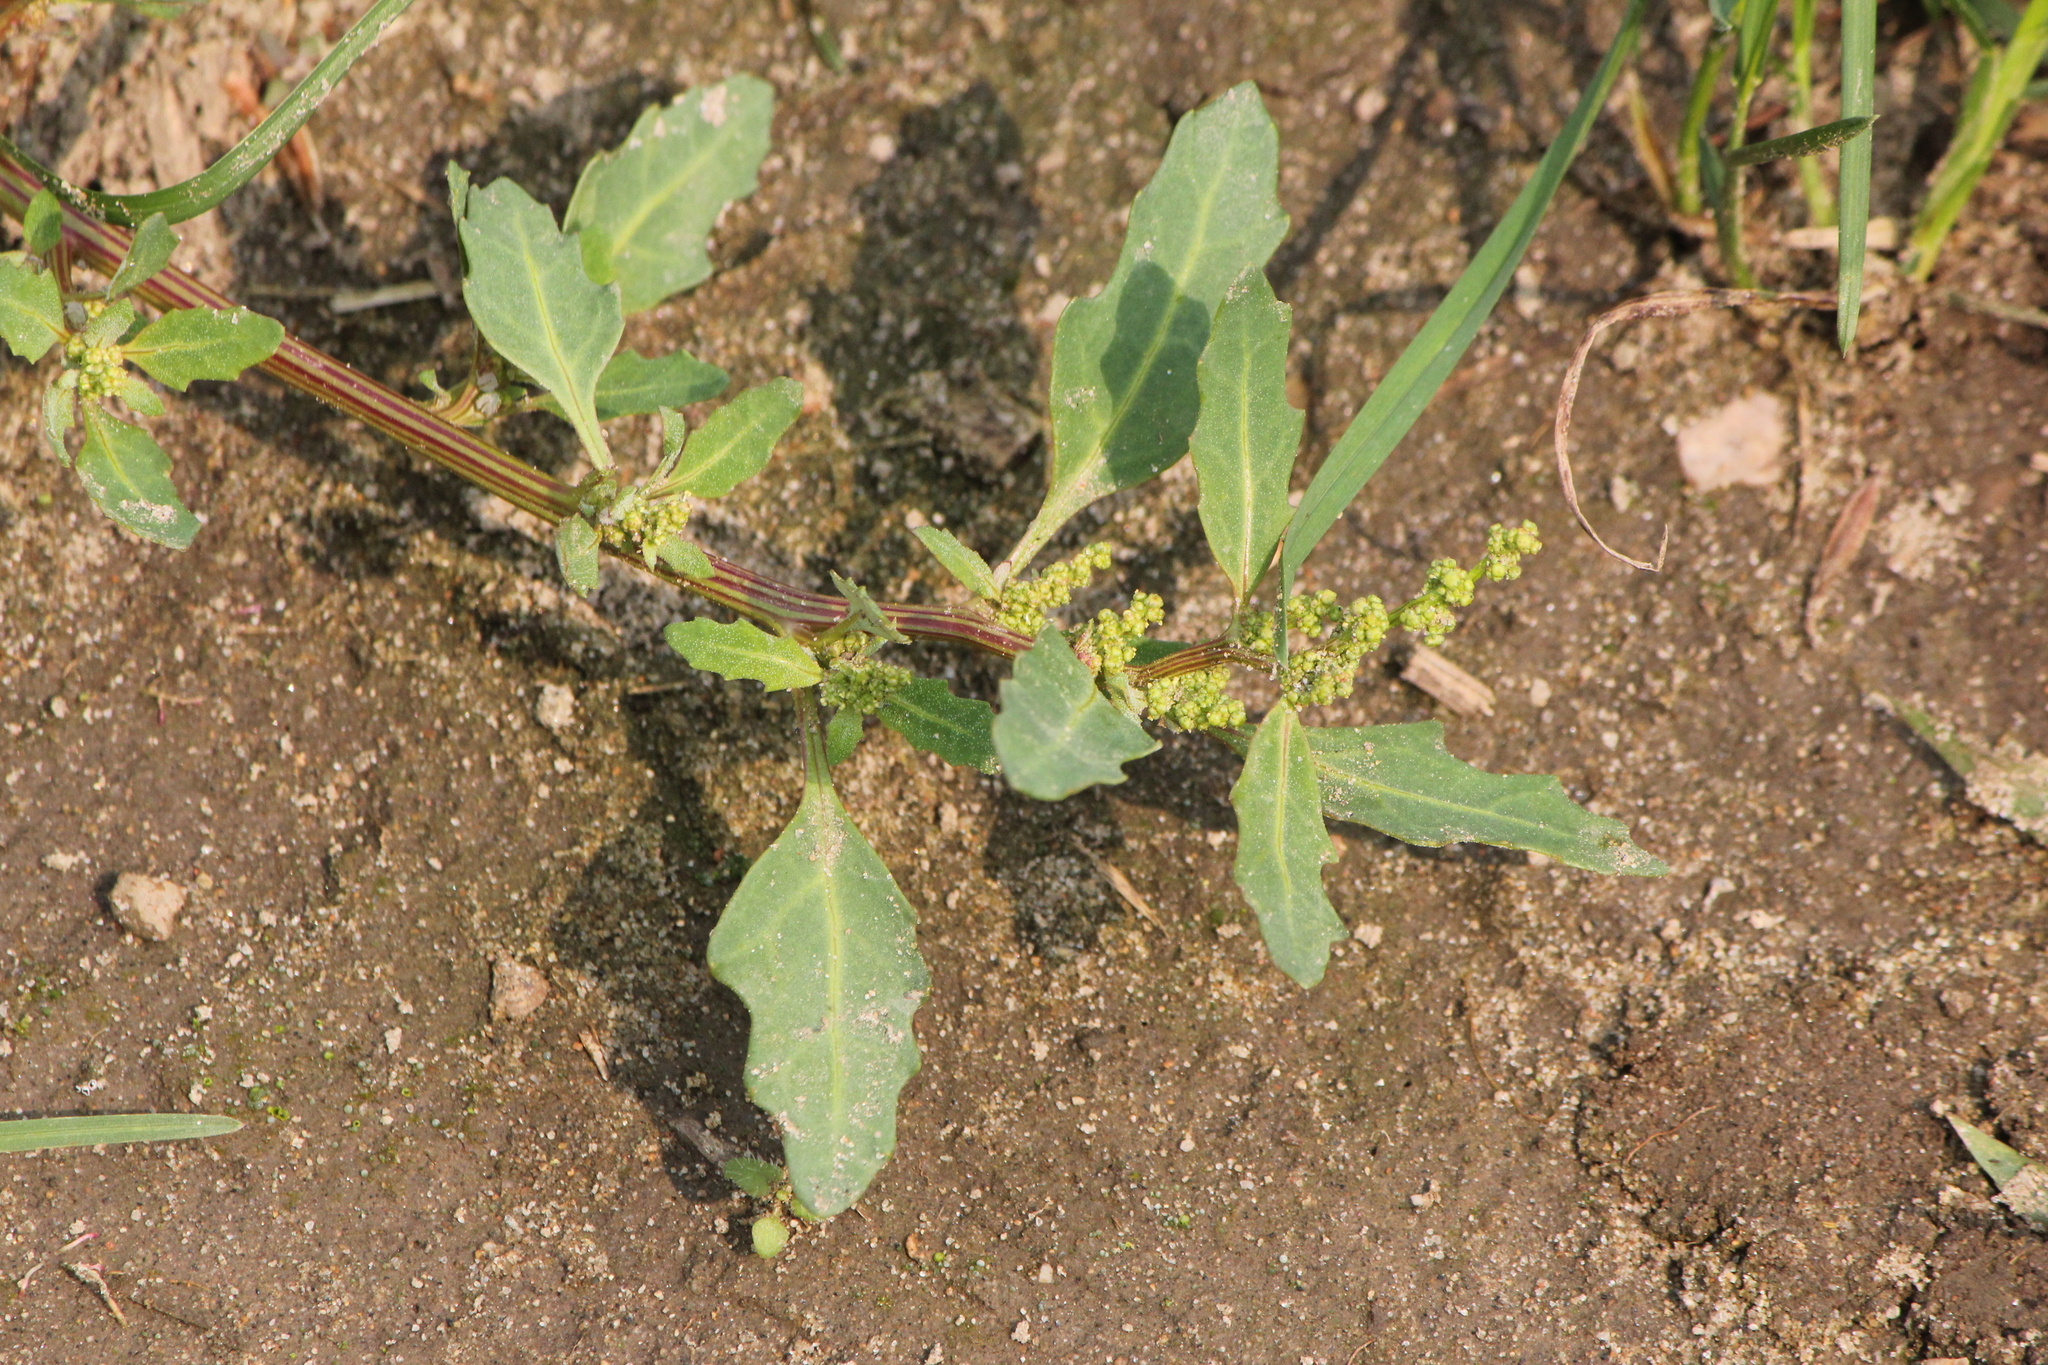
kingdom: Plantae
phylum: Tracheophyta
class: Magnoliopsida
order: Caryophyllales
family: Amaranthaceae
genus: Oxybasis
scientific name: Oxybasis glauca
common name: Glaucous goosefoot
